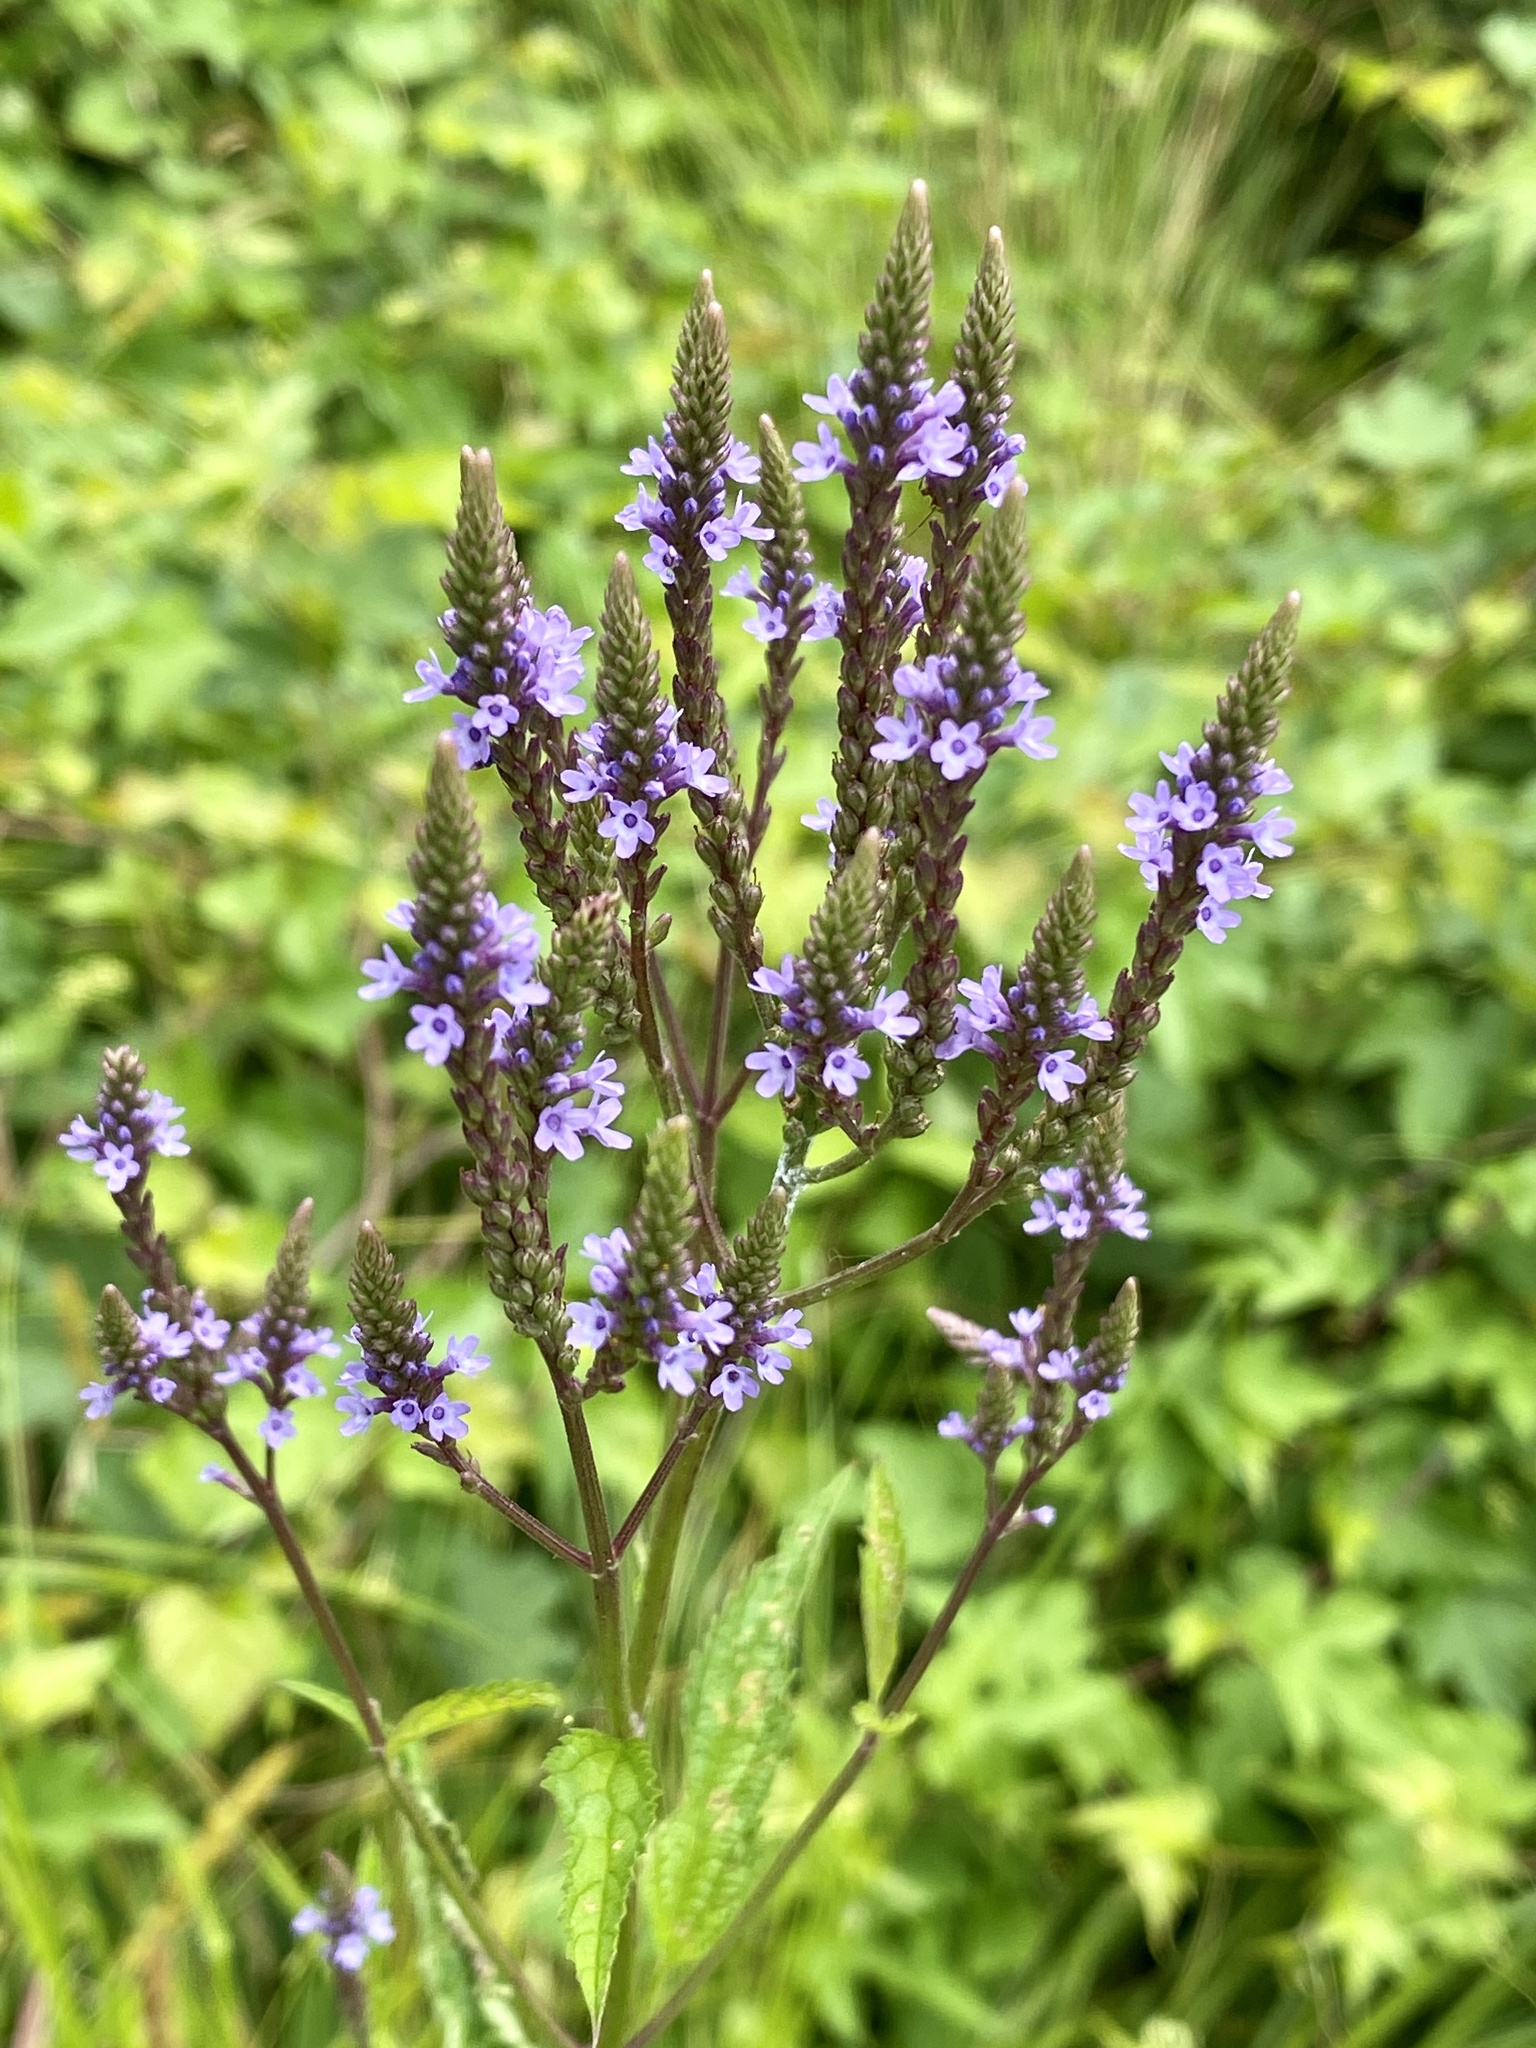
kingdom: Plantae
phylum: Tracheophyta
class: Magnoliopsida
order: Lamiales
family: Verbenaceae
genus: Verbena
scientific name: Verbena hastata
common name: American blue vervain
